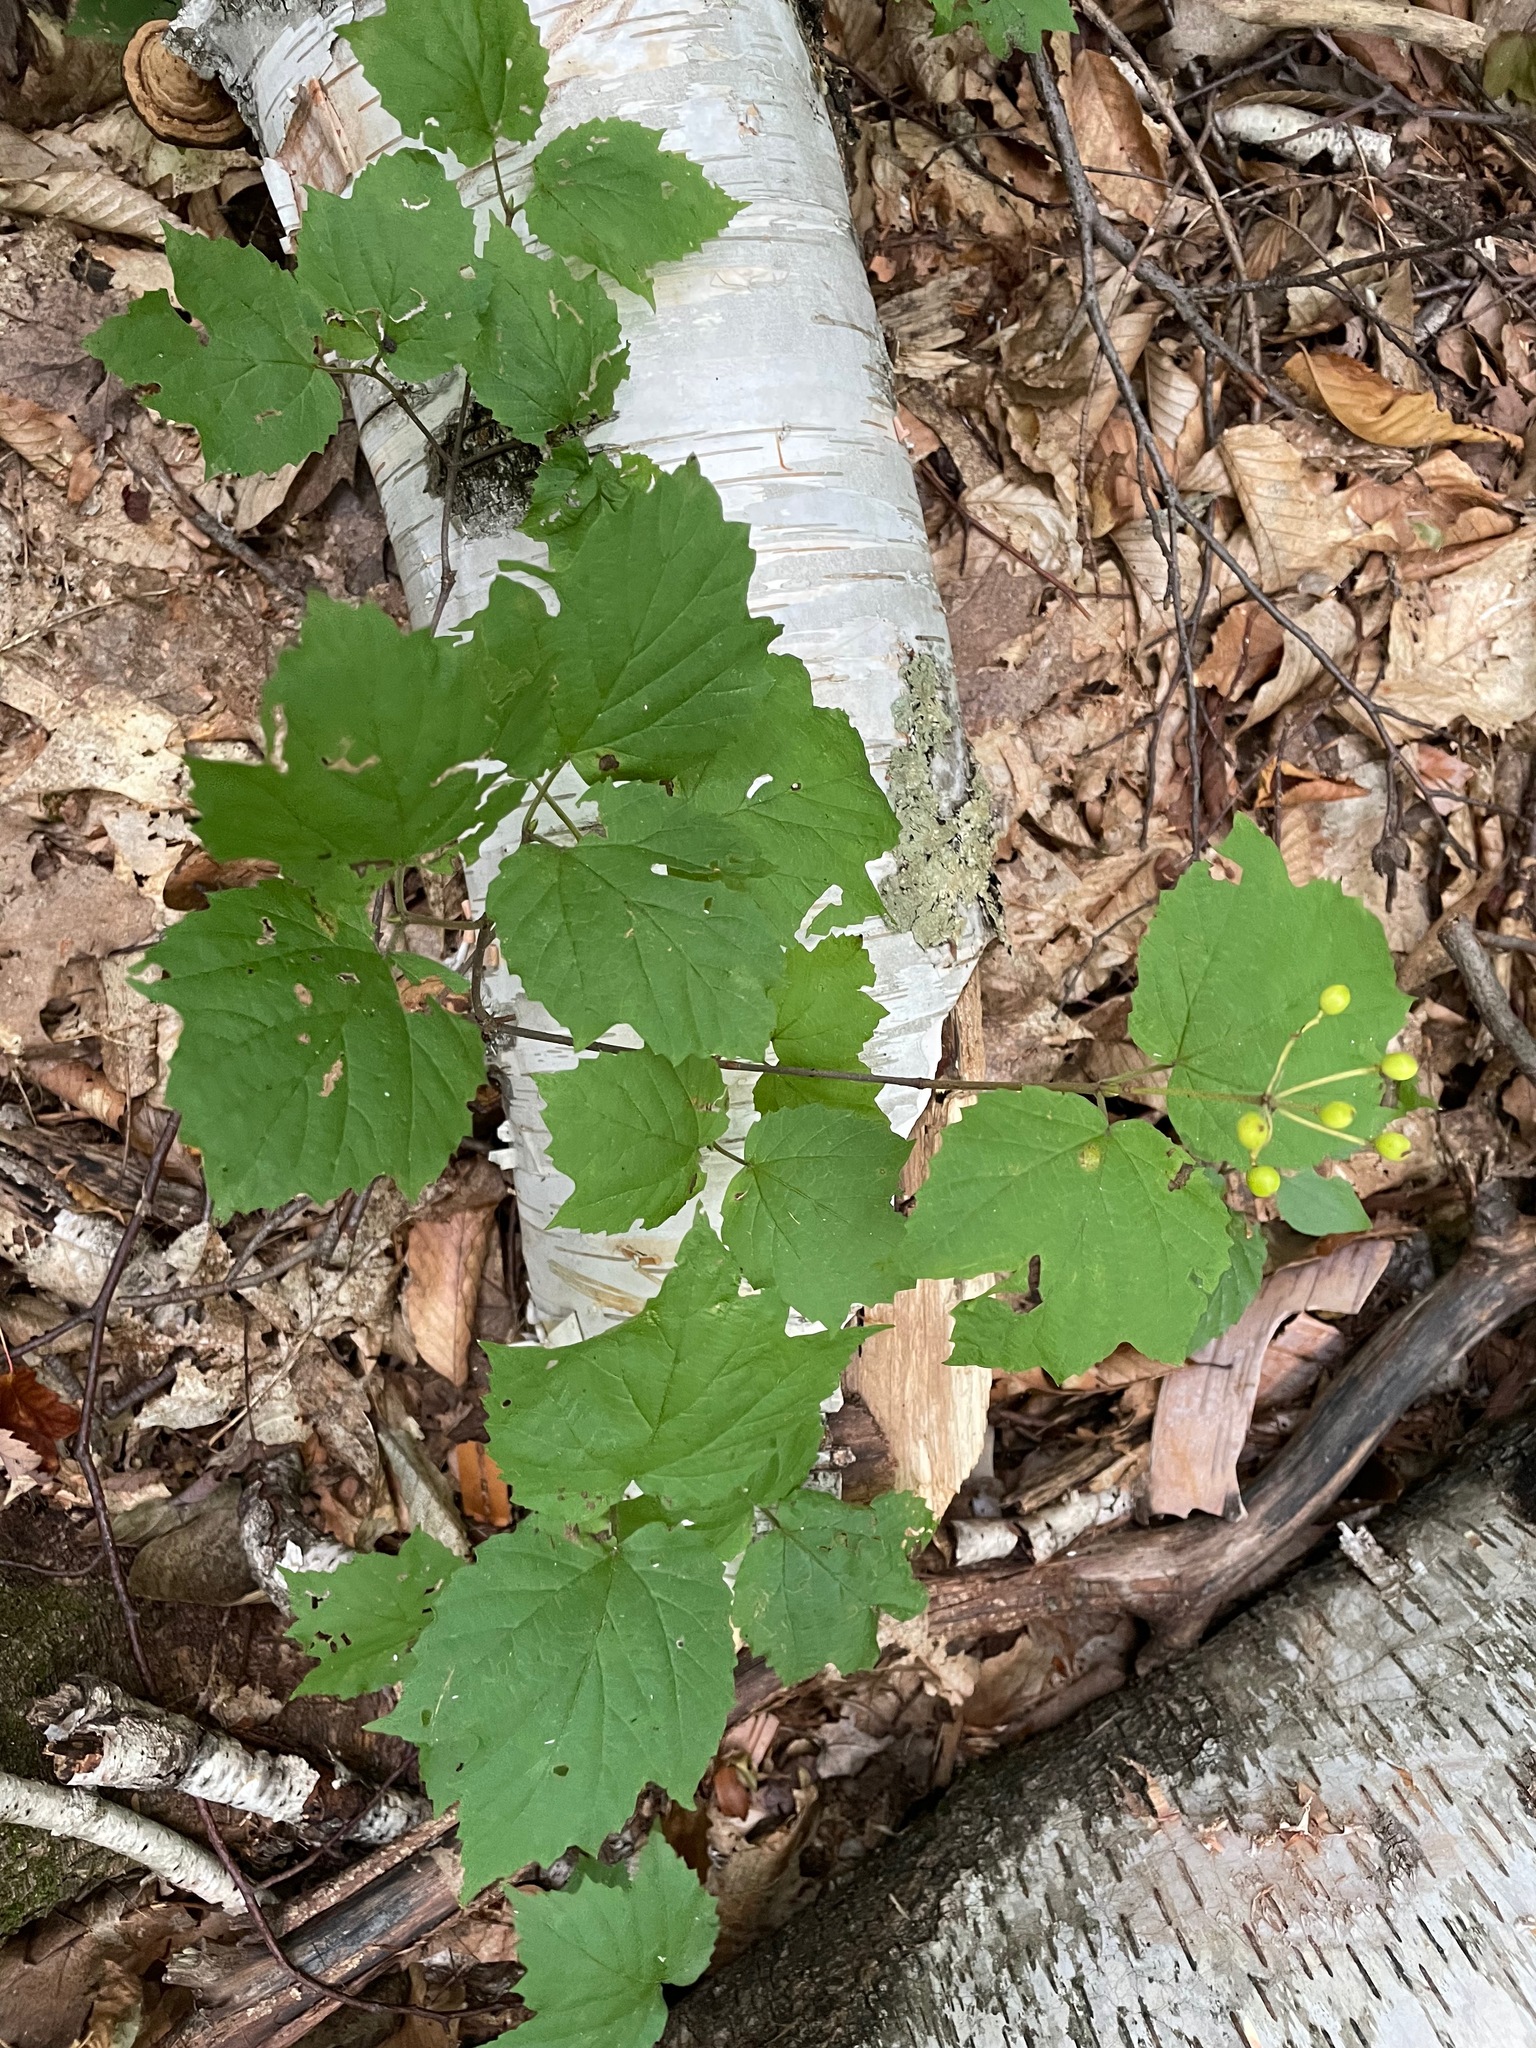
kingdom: Plantae
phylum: Tracheophyta
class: Magnoliopsida
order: Dipsacales
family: Viburnaceae
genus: Viburnum
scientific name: Viburnum acerifolium
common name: Dockmackie
